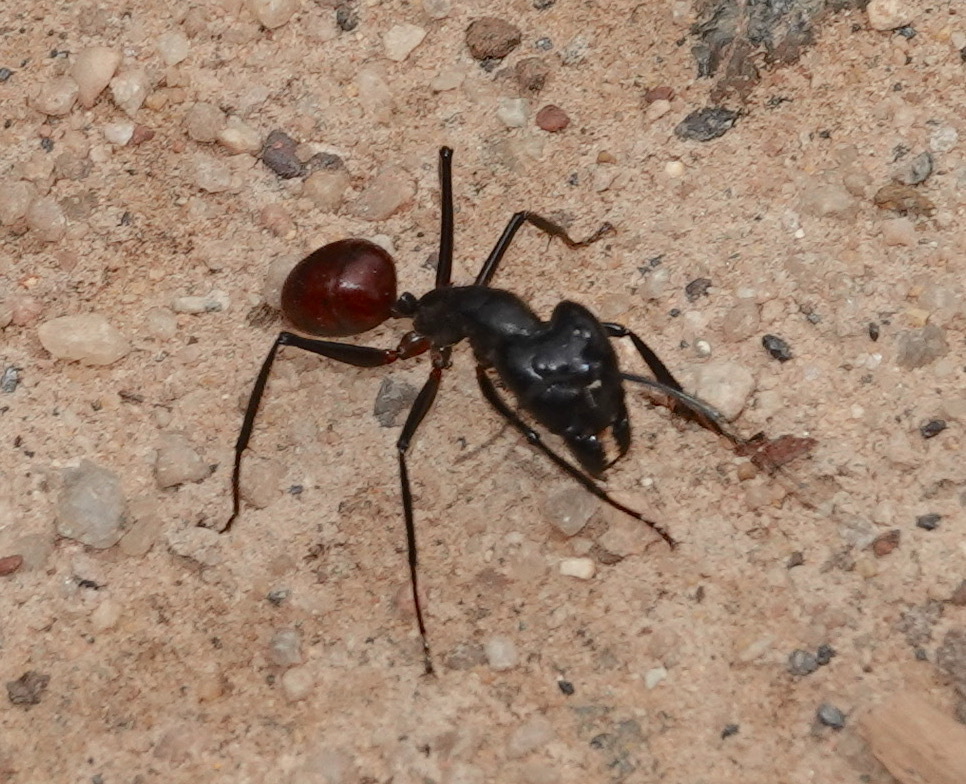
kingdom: Animalia
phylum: Arthropoda
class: Insecta
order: Hymenoptera
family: Formicidae
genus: Dinomyrmex
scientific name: Dinomyrmex
